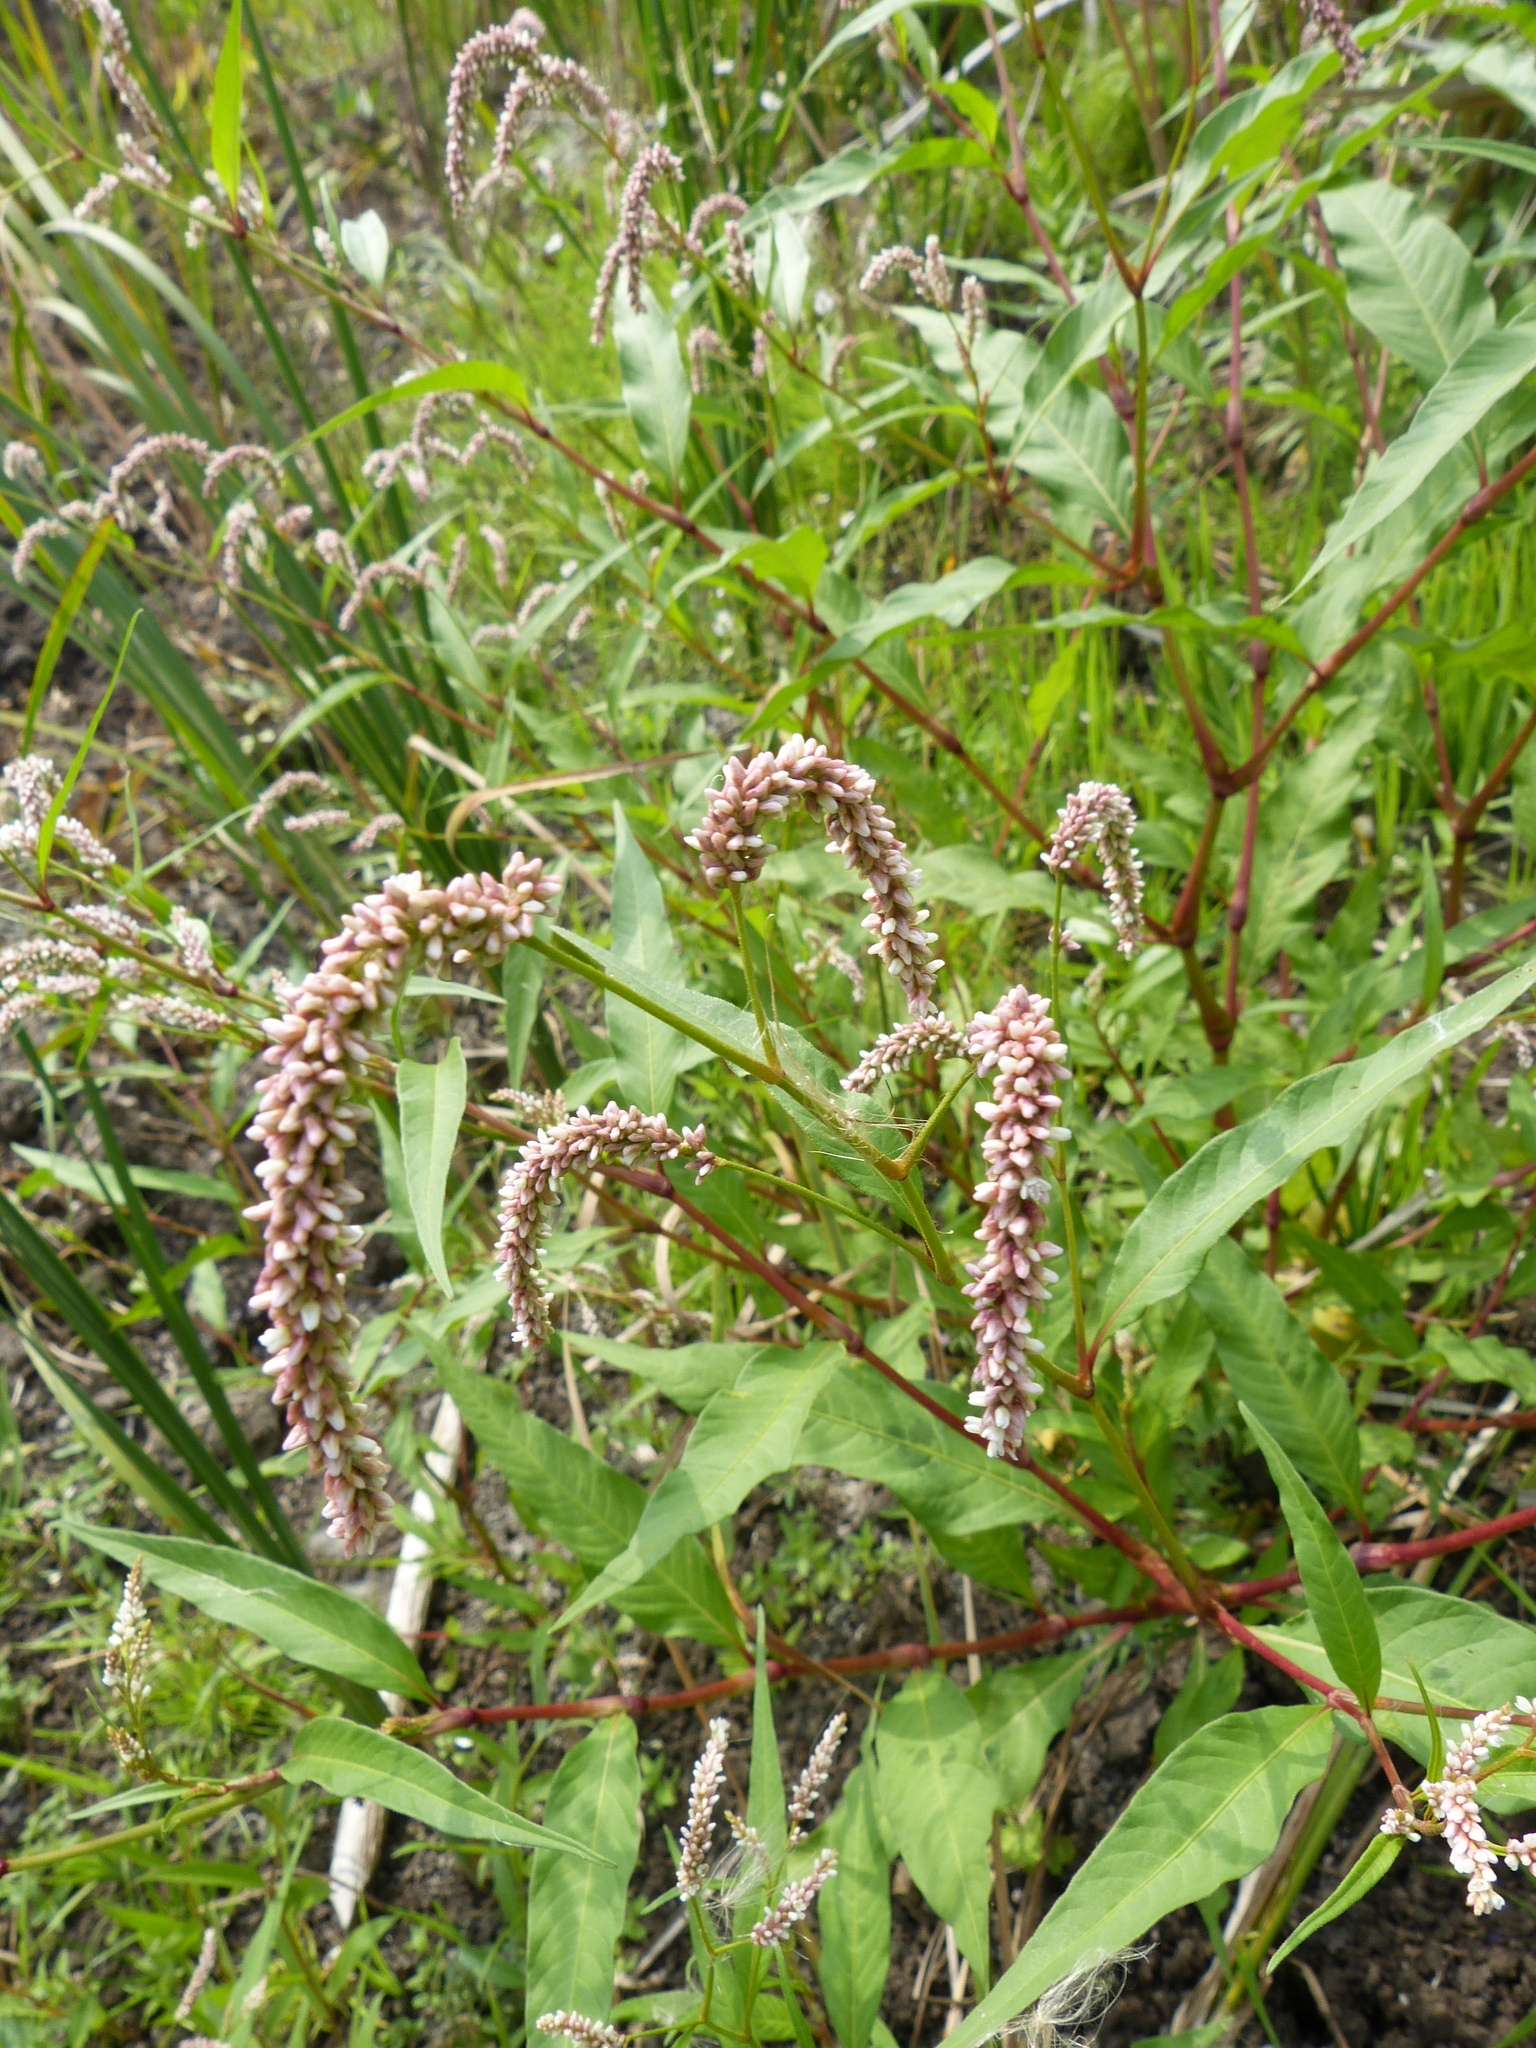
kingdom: Plantae
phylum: Tracheophyta
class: Magnoliopsida
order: Caryophyllales
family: Polygonaceae
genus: Persicaria
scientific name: Persicaria lapathifolia
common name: Curlytop knotweed
